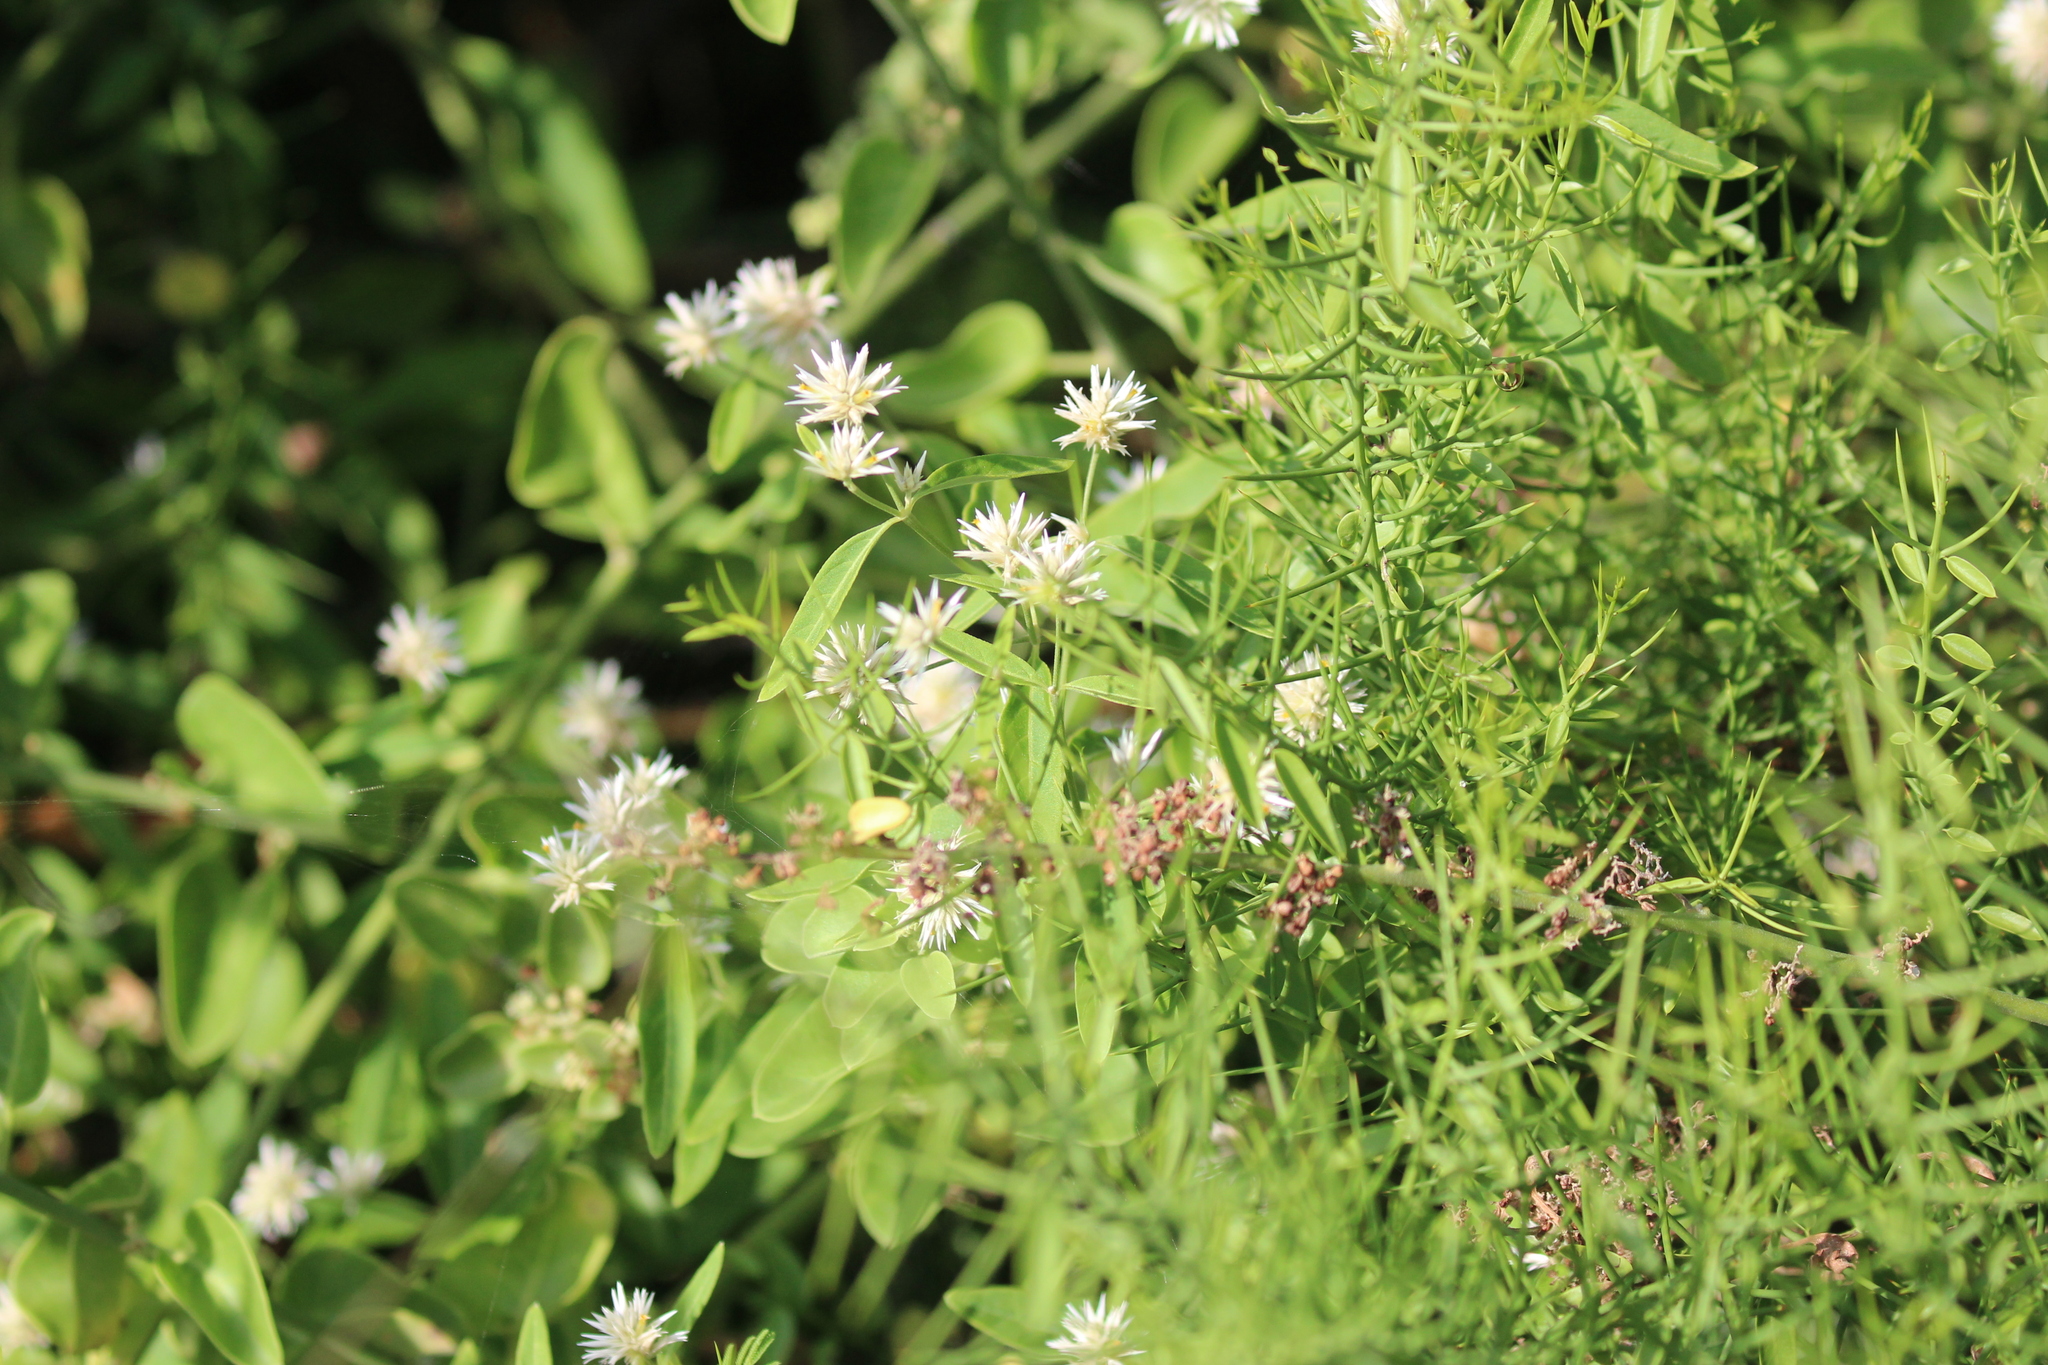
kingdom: Plantae
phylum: Tracheophyta
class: Magnoliopsida
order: Caryophyllales
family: Amaranthaceae
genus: Alternanthera
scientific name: Alternanthera echinocephala
